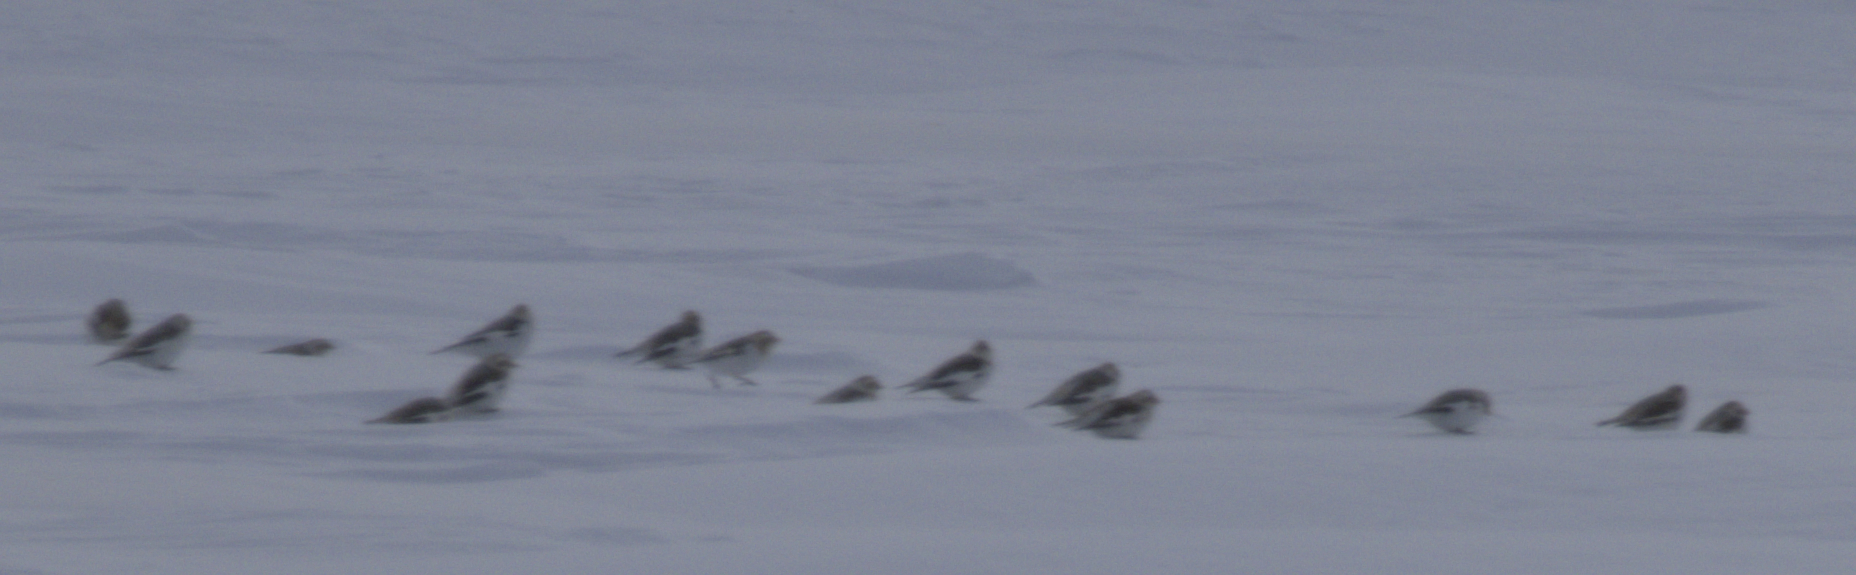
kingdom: Animalia
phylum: Chordata
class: Aves
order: Passeriformes
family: Calcariidae
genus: Plectrophenax
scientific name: Plectrophenax nivalis
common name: Snow bunting
